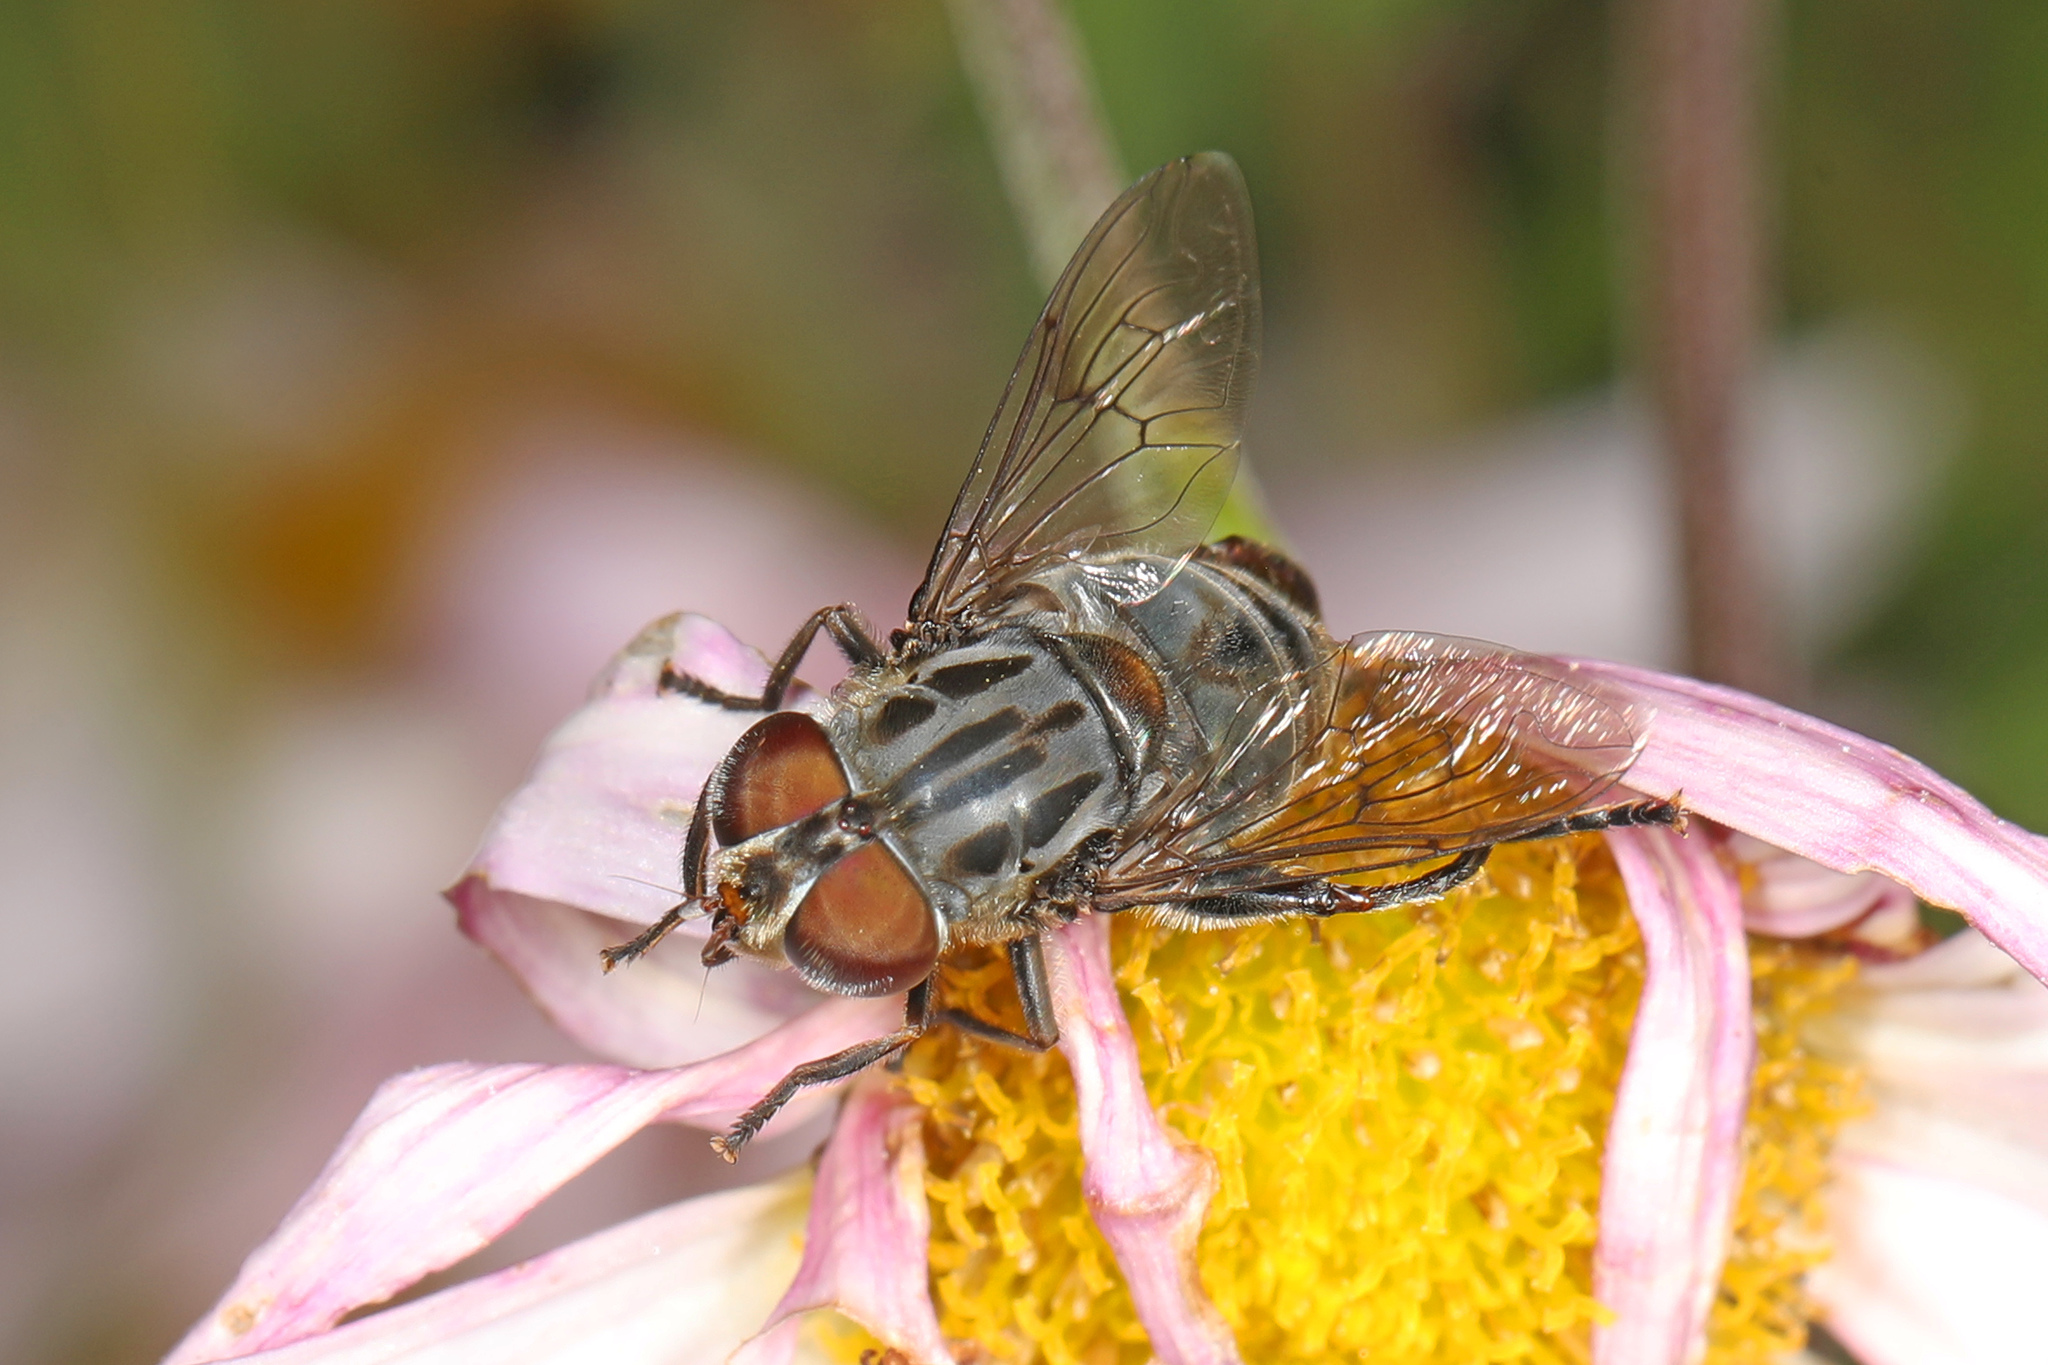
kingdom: Animalia
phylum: Arthropoda
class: Insecta
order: Diptera
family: Syrphidae
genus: Palpada
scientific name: Palpada furcata
